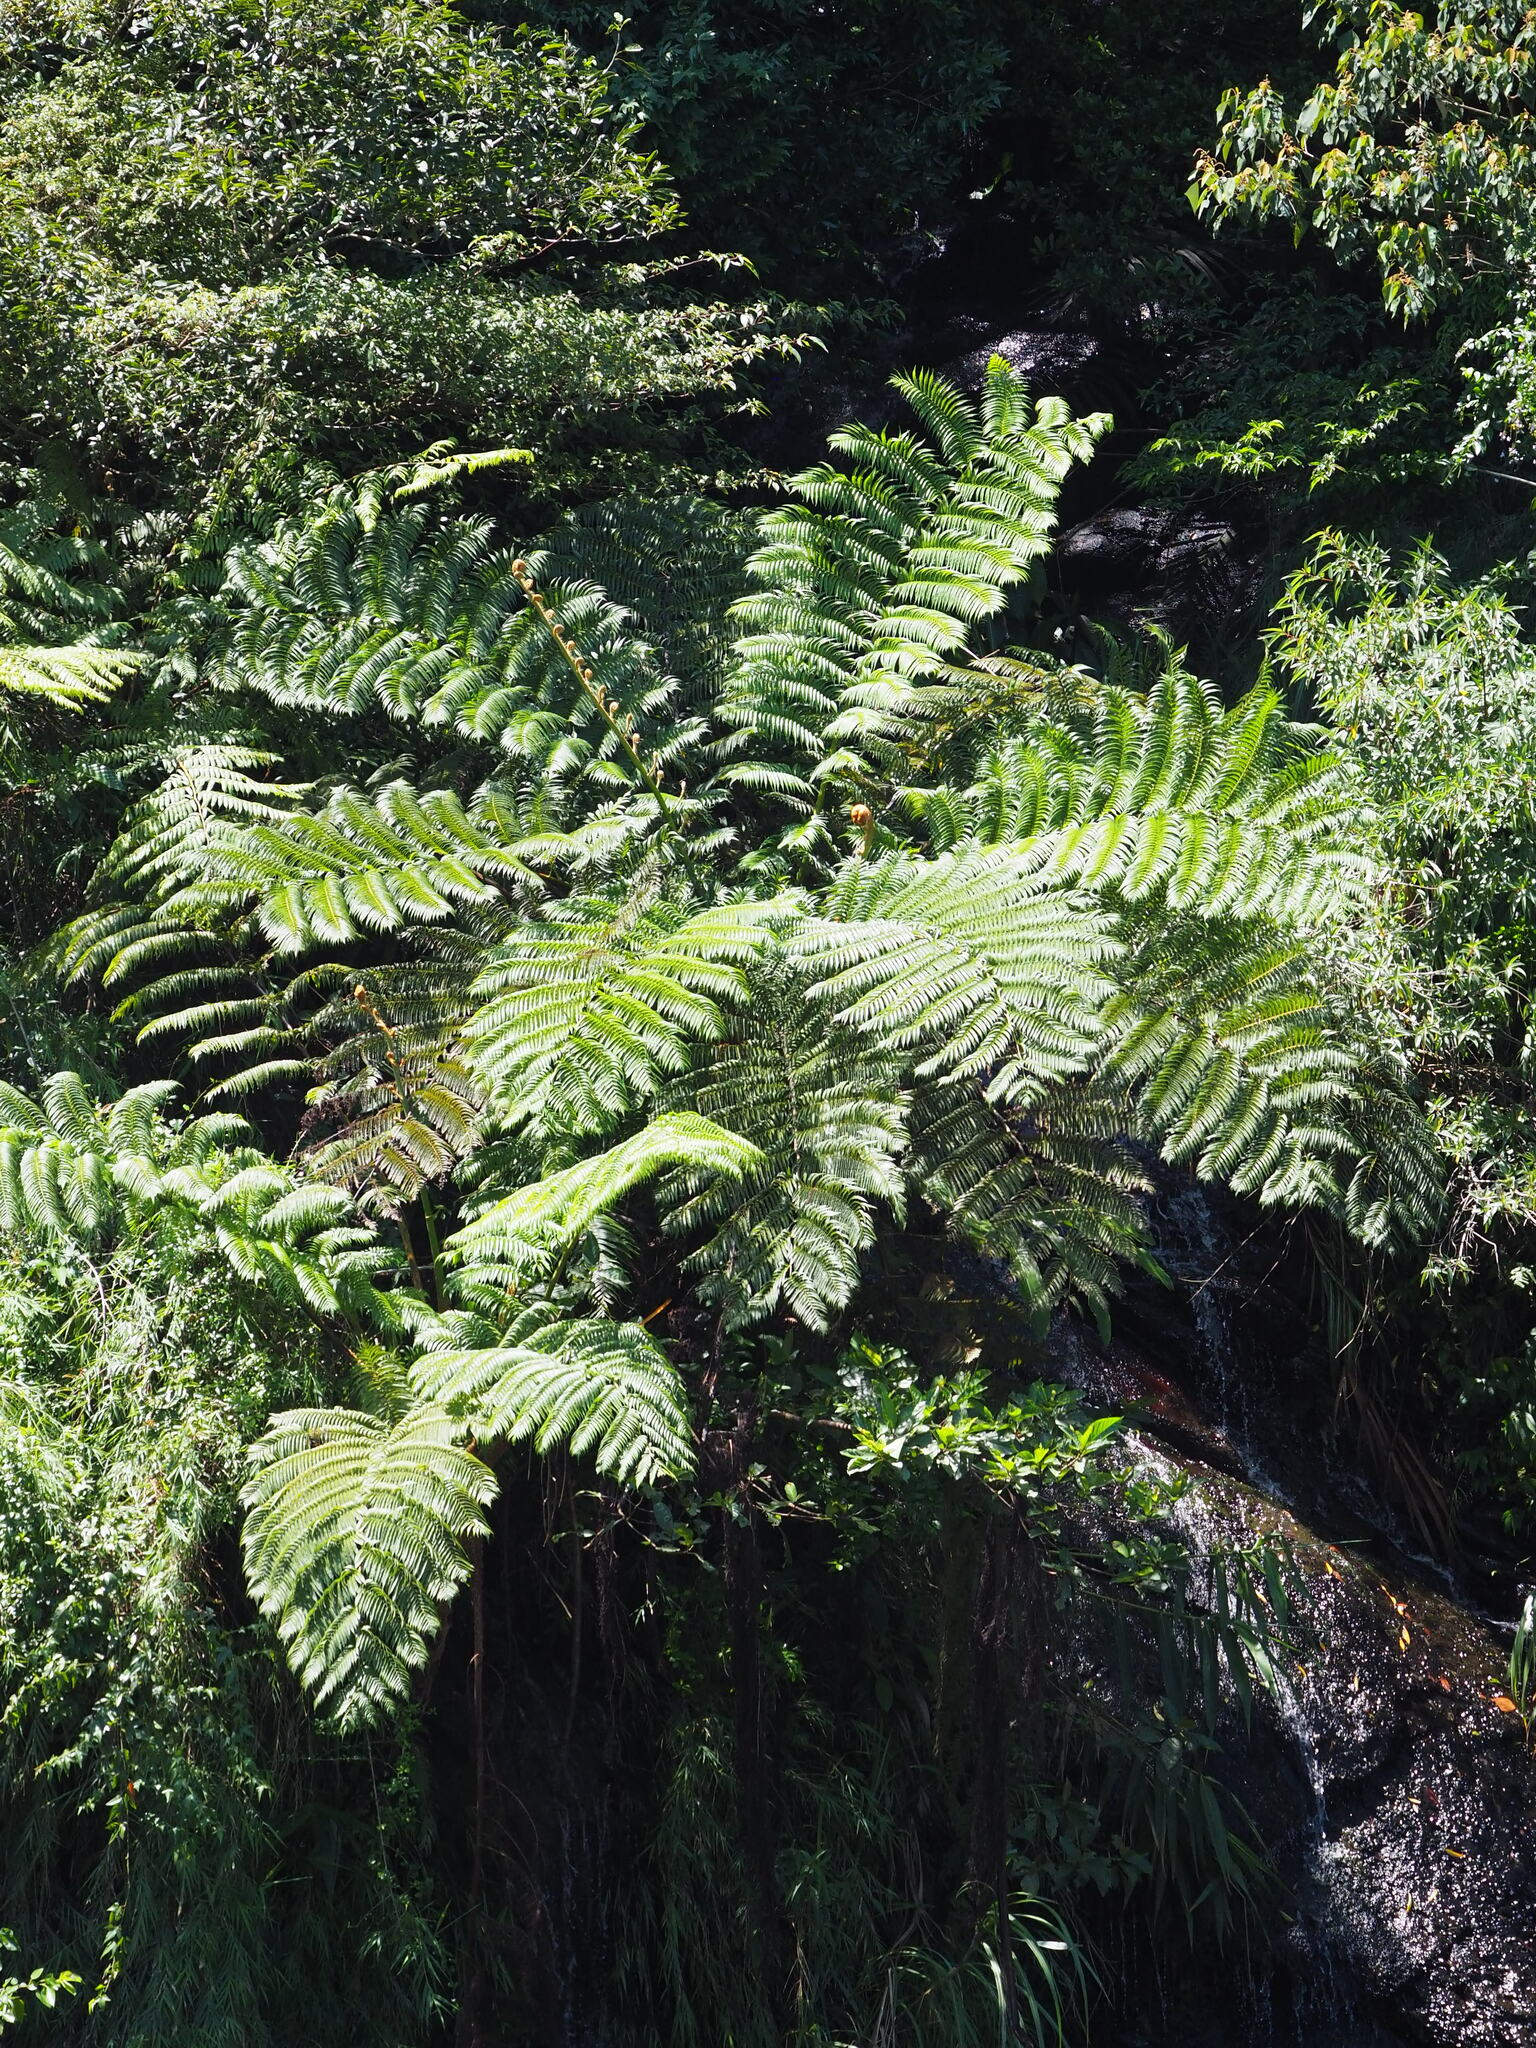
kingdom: Plantae
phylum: Tracheophyta
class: Polypodiopsida
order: Cyatheales
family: Cyatheaceae
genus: Alsophila
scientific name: Alsophila lepifera
